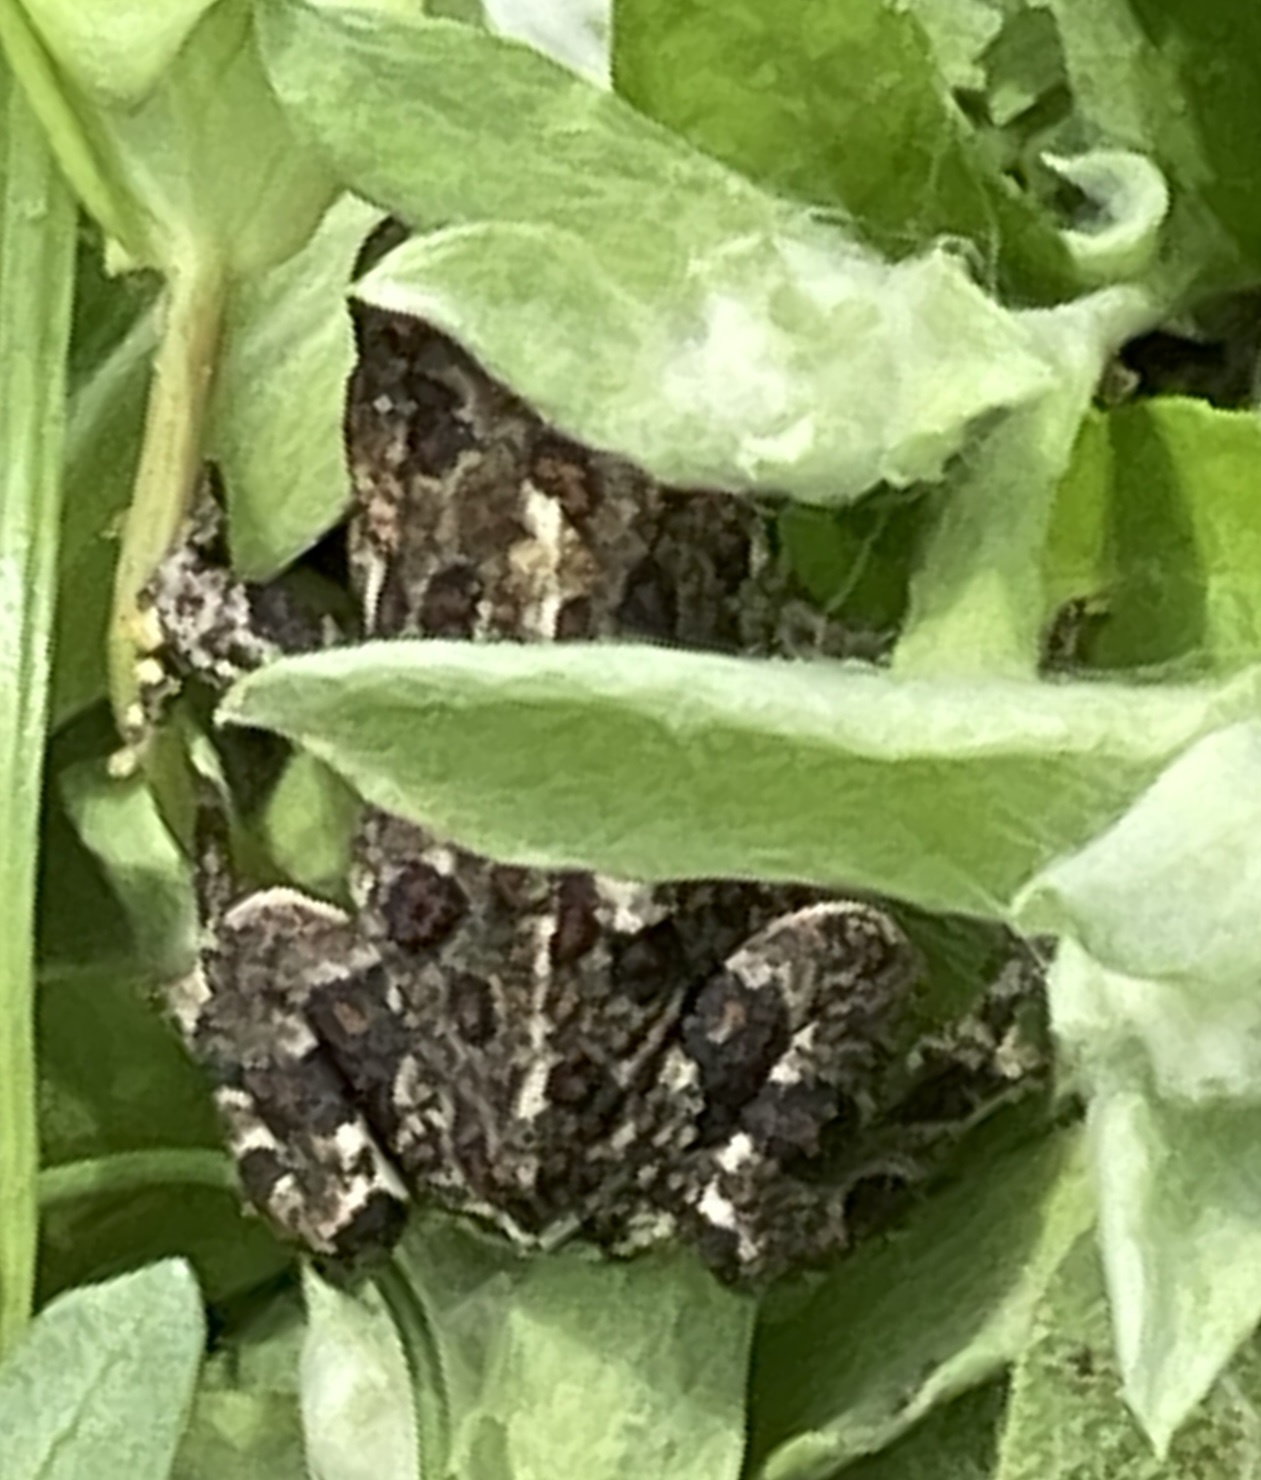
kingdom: Animalia
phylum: Chordata
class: Amphibia
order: Anura
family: Bufonidae
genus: Anaxyrus
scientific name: Anaxyrus boreas
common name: Western toad
